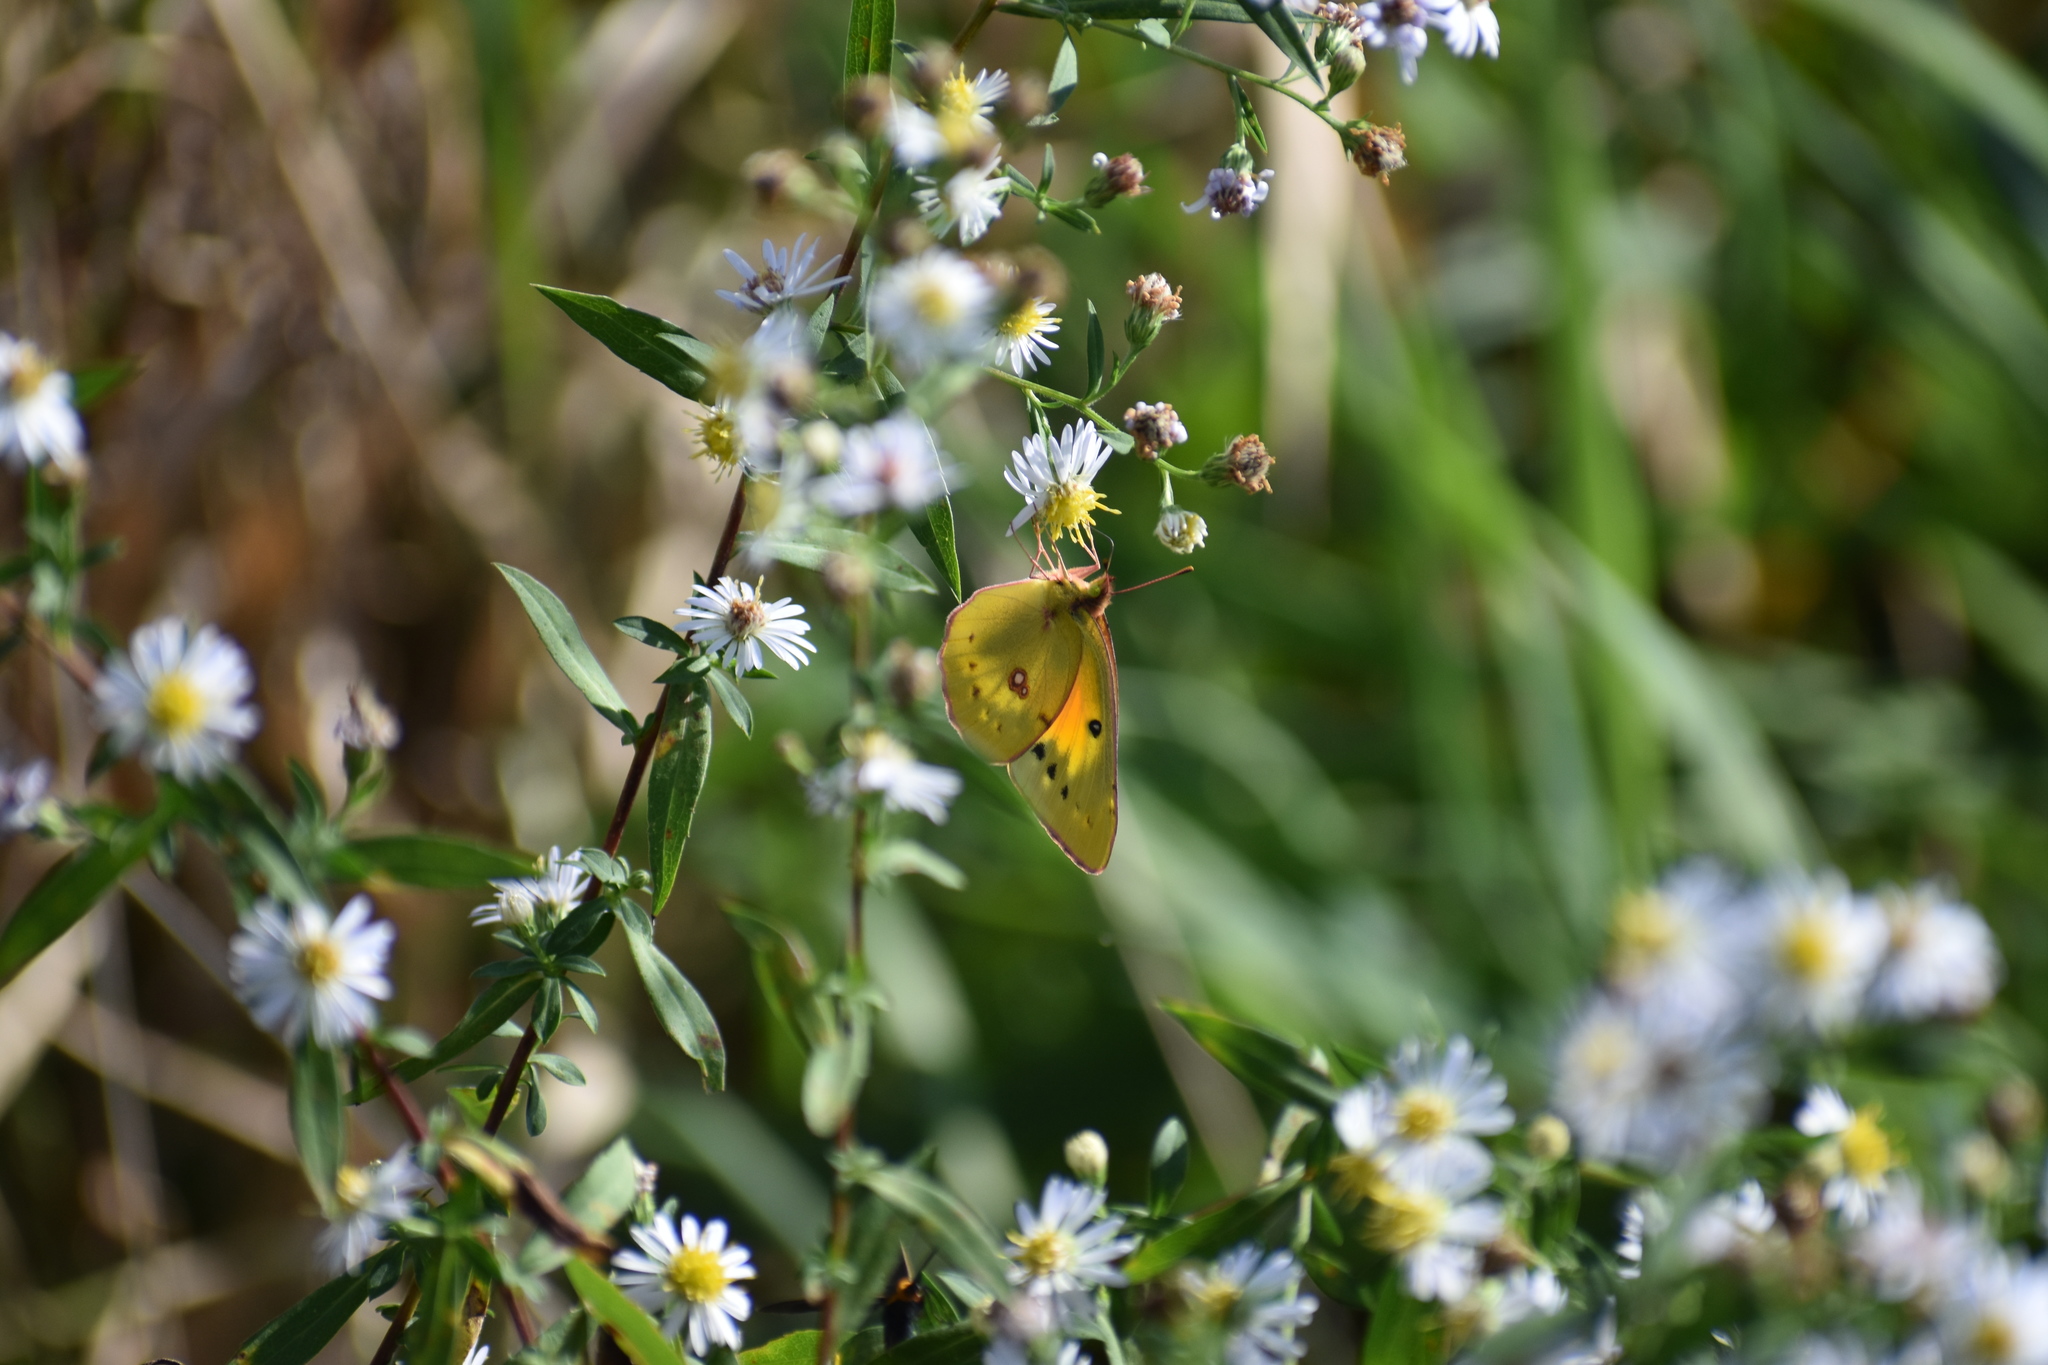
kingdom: Animalia
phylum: Arthropoda
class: Insecta
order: Lepidoptera
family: Pieridae
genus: Colias
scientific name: Colias eurytheme
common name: Alfalfa butterfly
